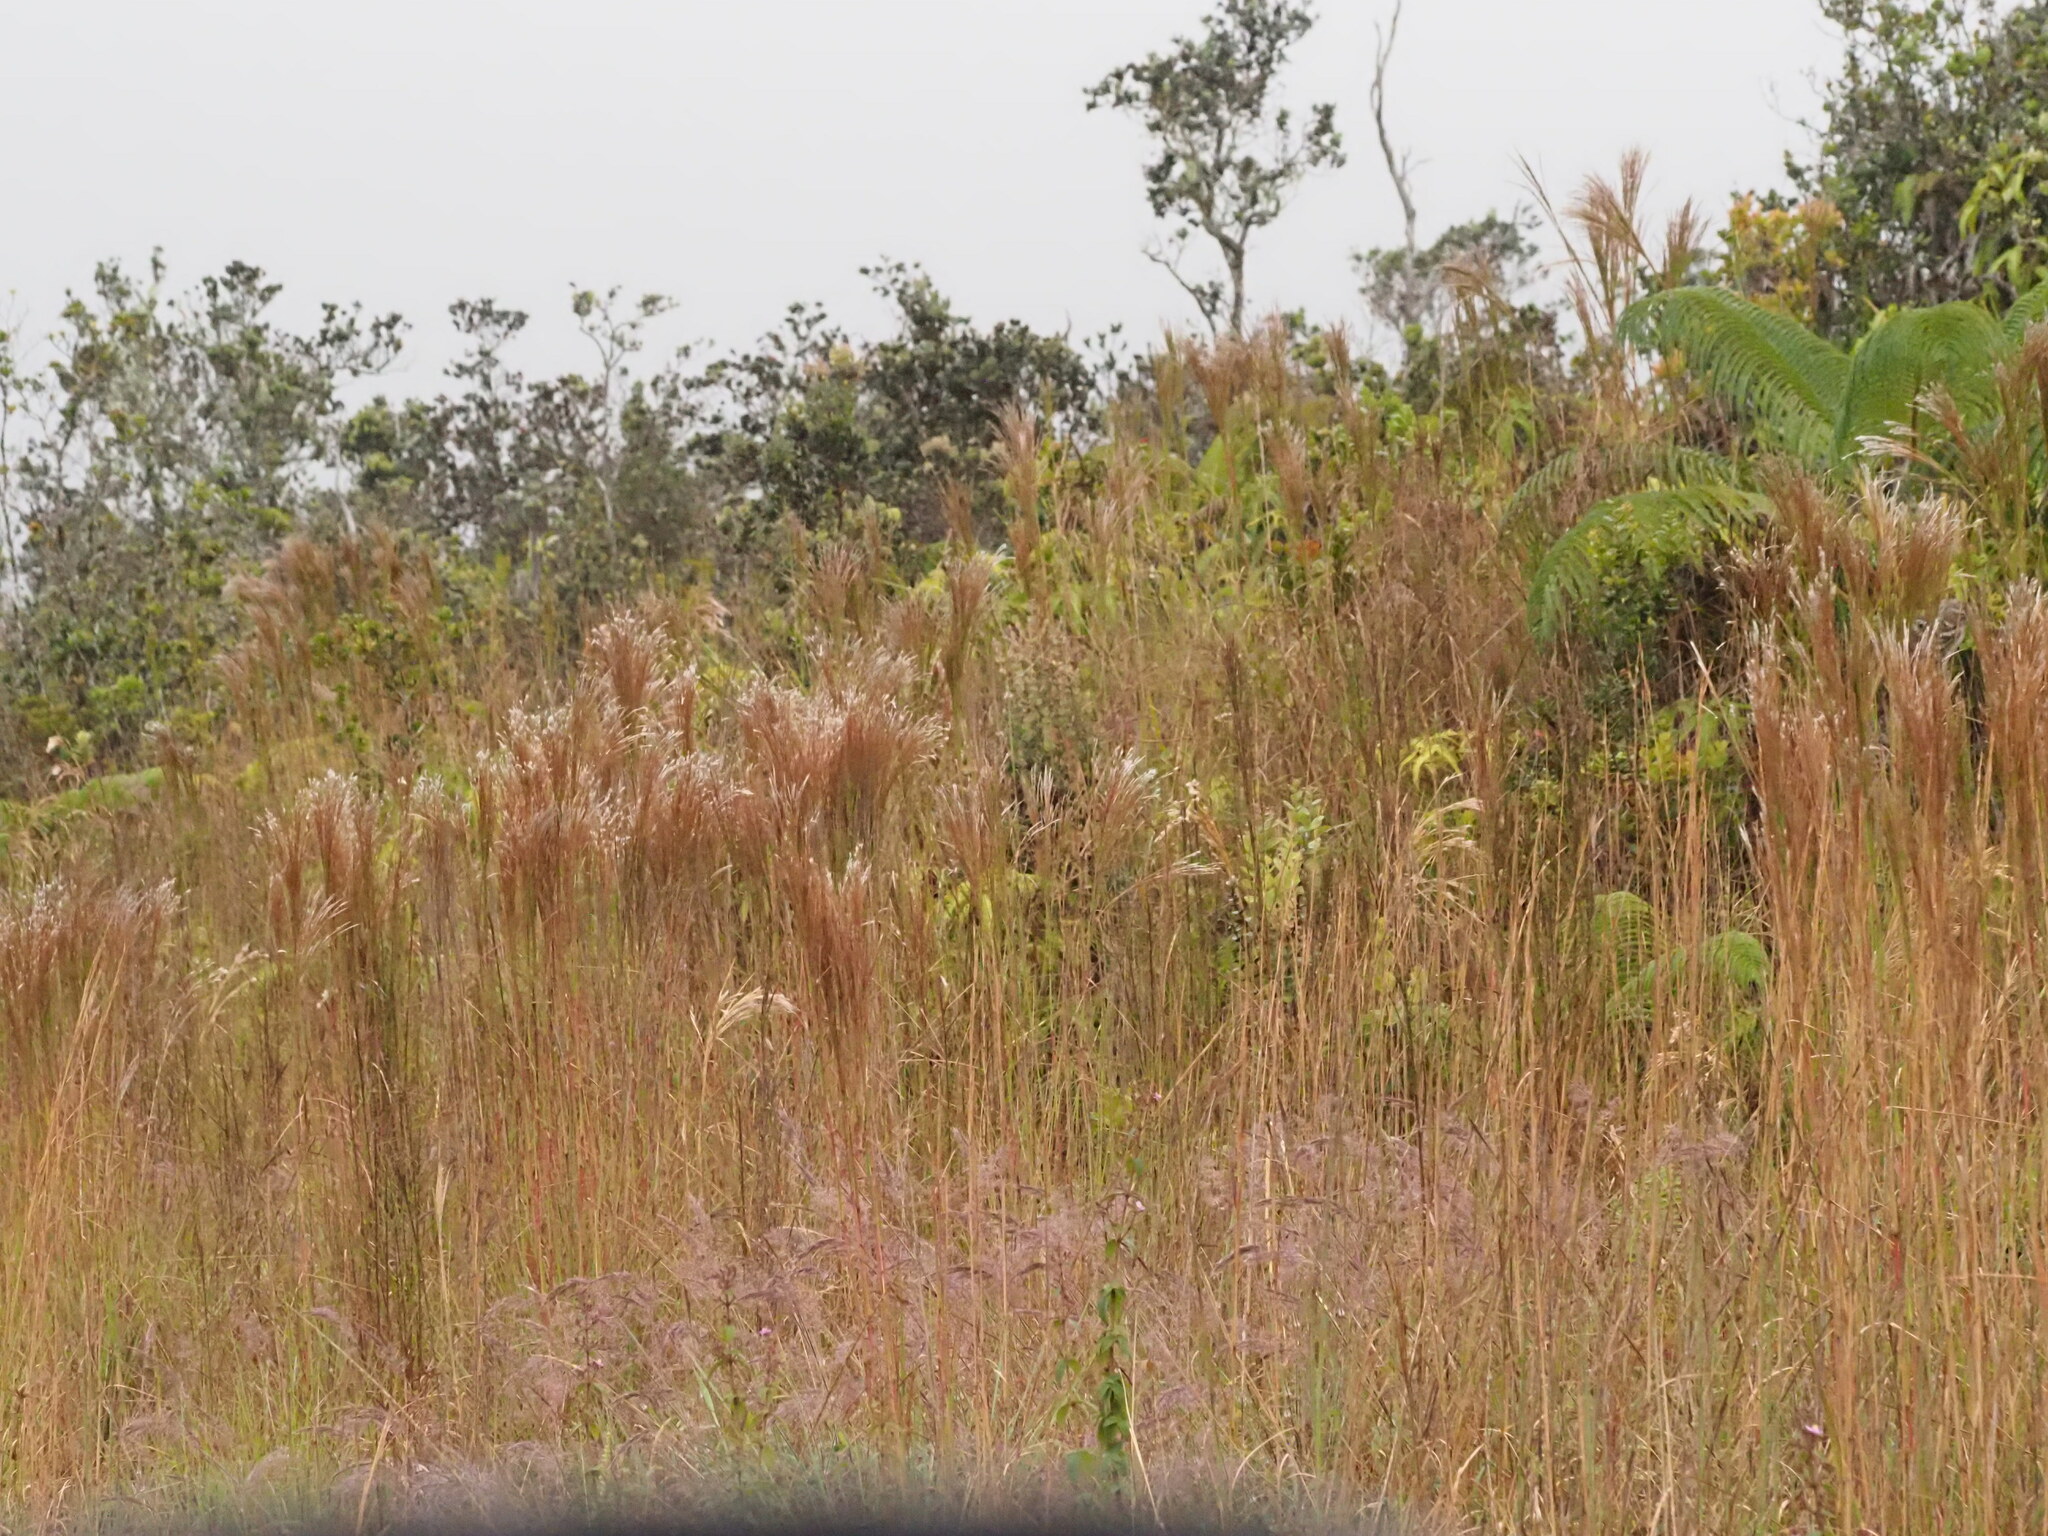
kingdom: Plantae
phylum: Tracheophyta
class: Liliopsida
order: Poales
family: Poaceae
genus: Andropogon
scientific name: Andropogon bicornis
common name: West indian foxtail grass
